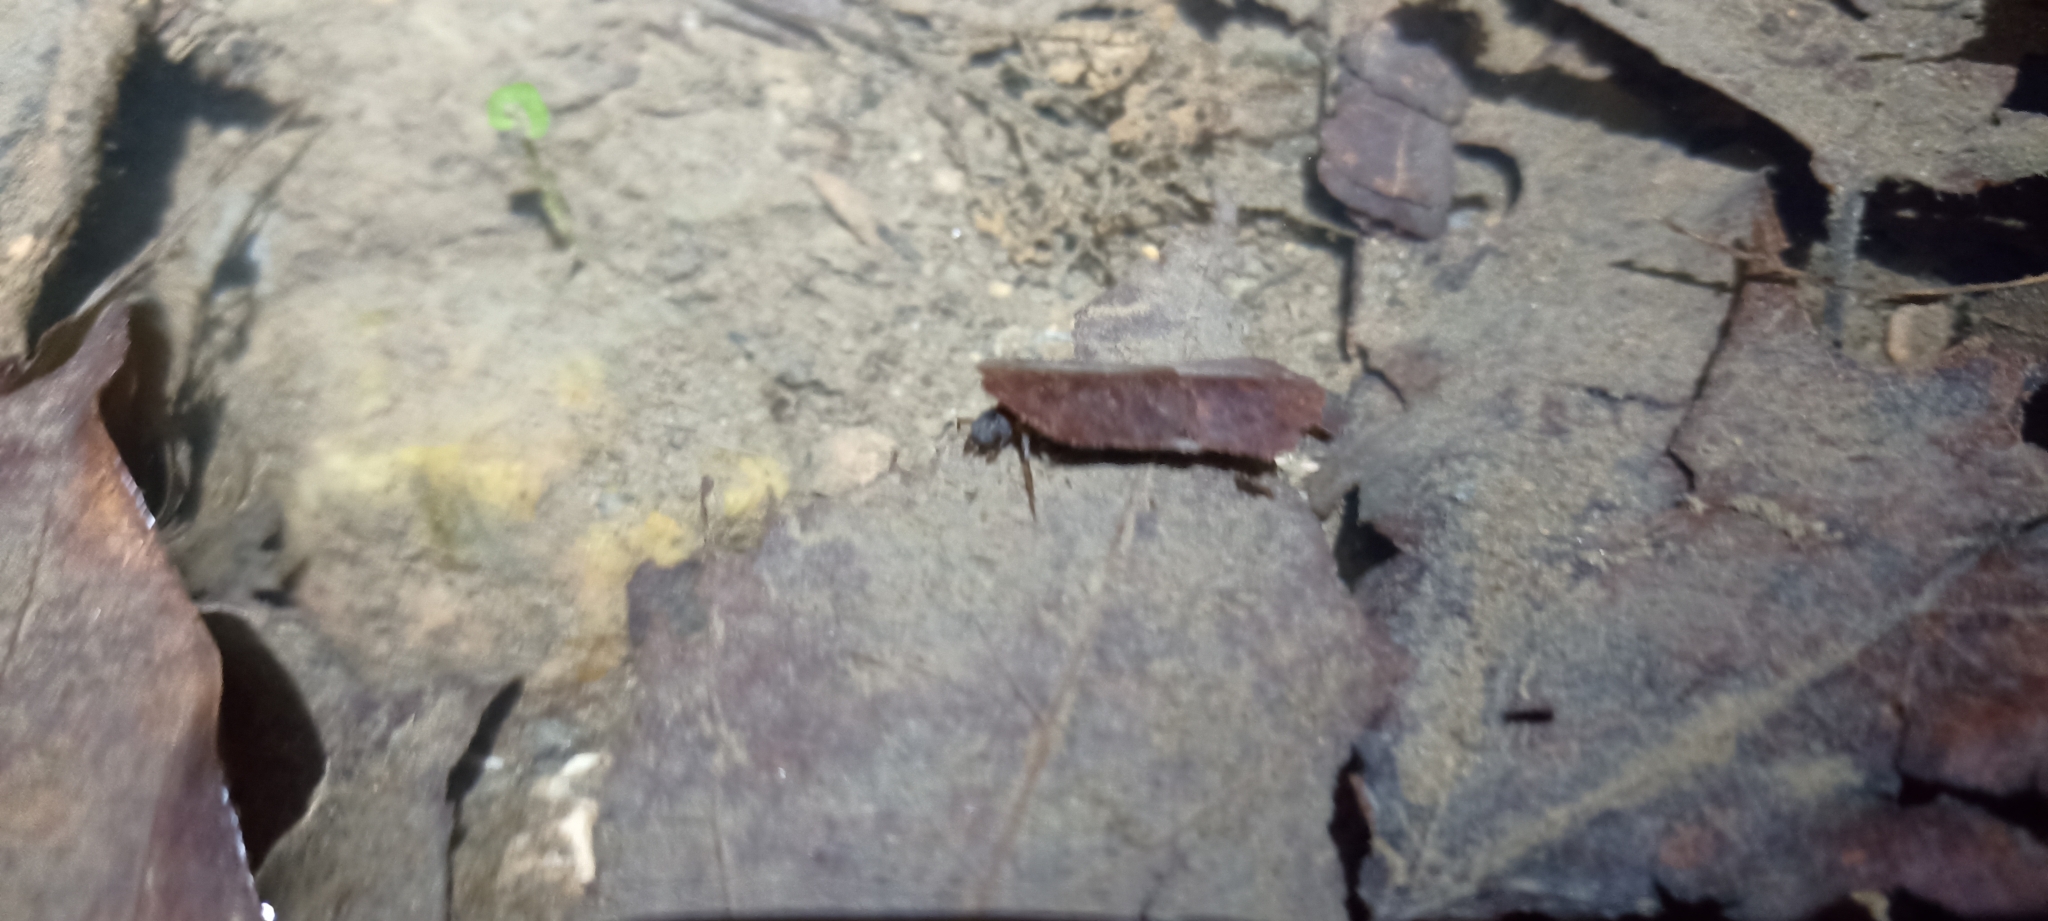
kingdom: Animalia
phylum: Arthropoda
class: Insecta
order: Trichoptera
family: Limnephilidae
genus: Glyphotaelius
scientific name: Glyphotaelius pellucidus
